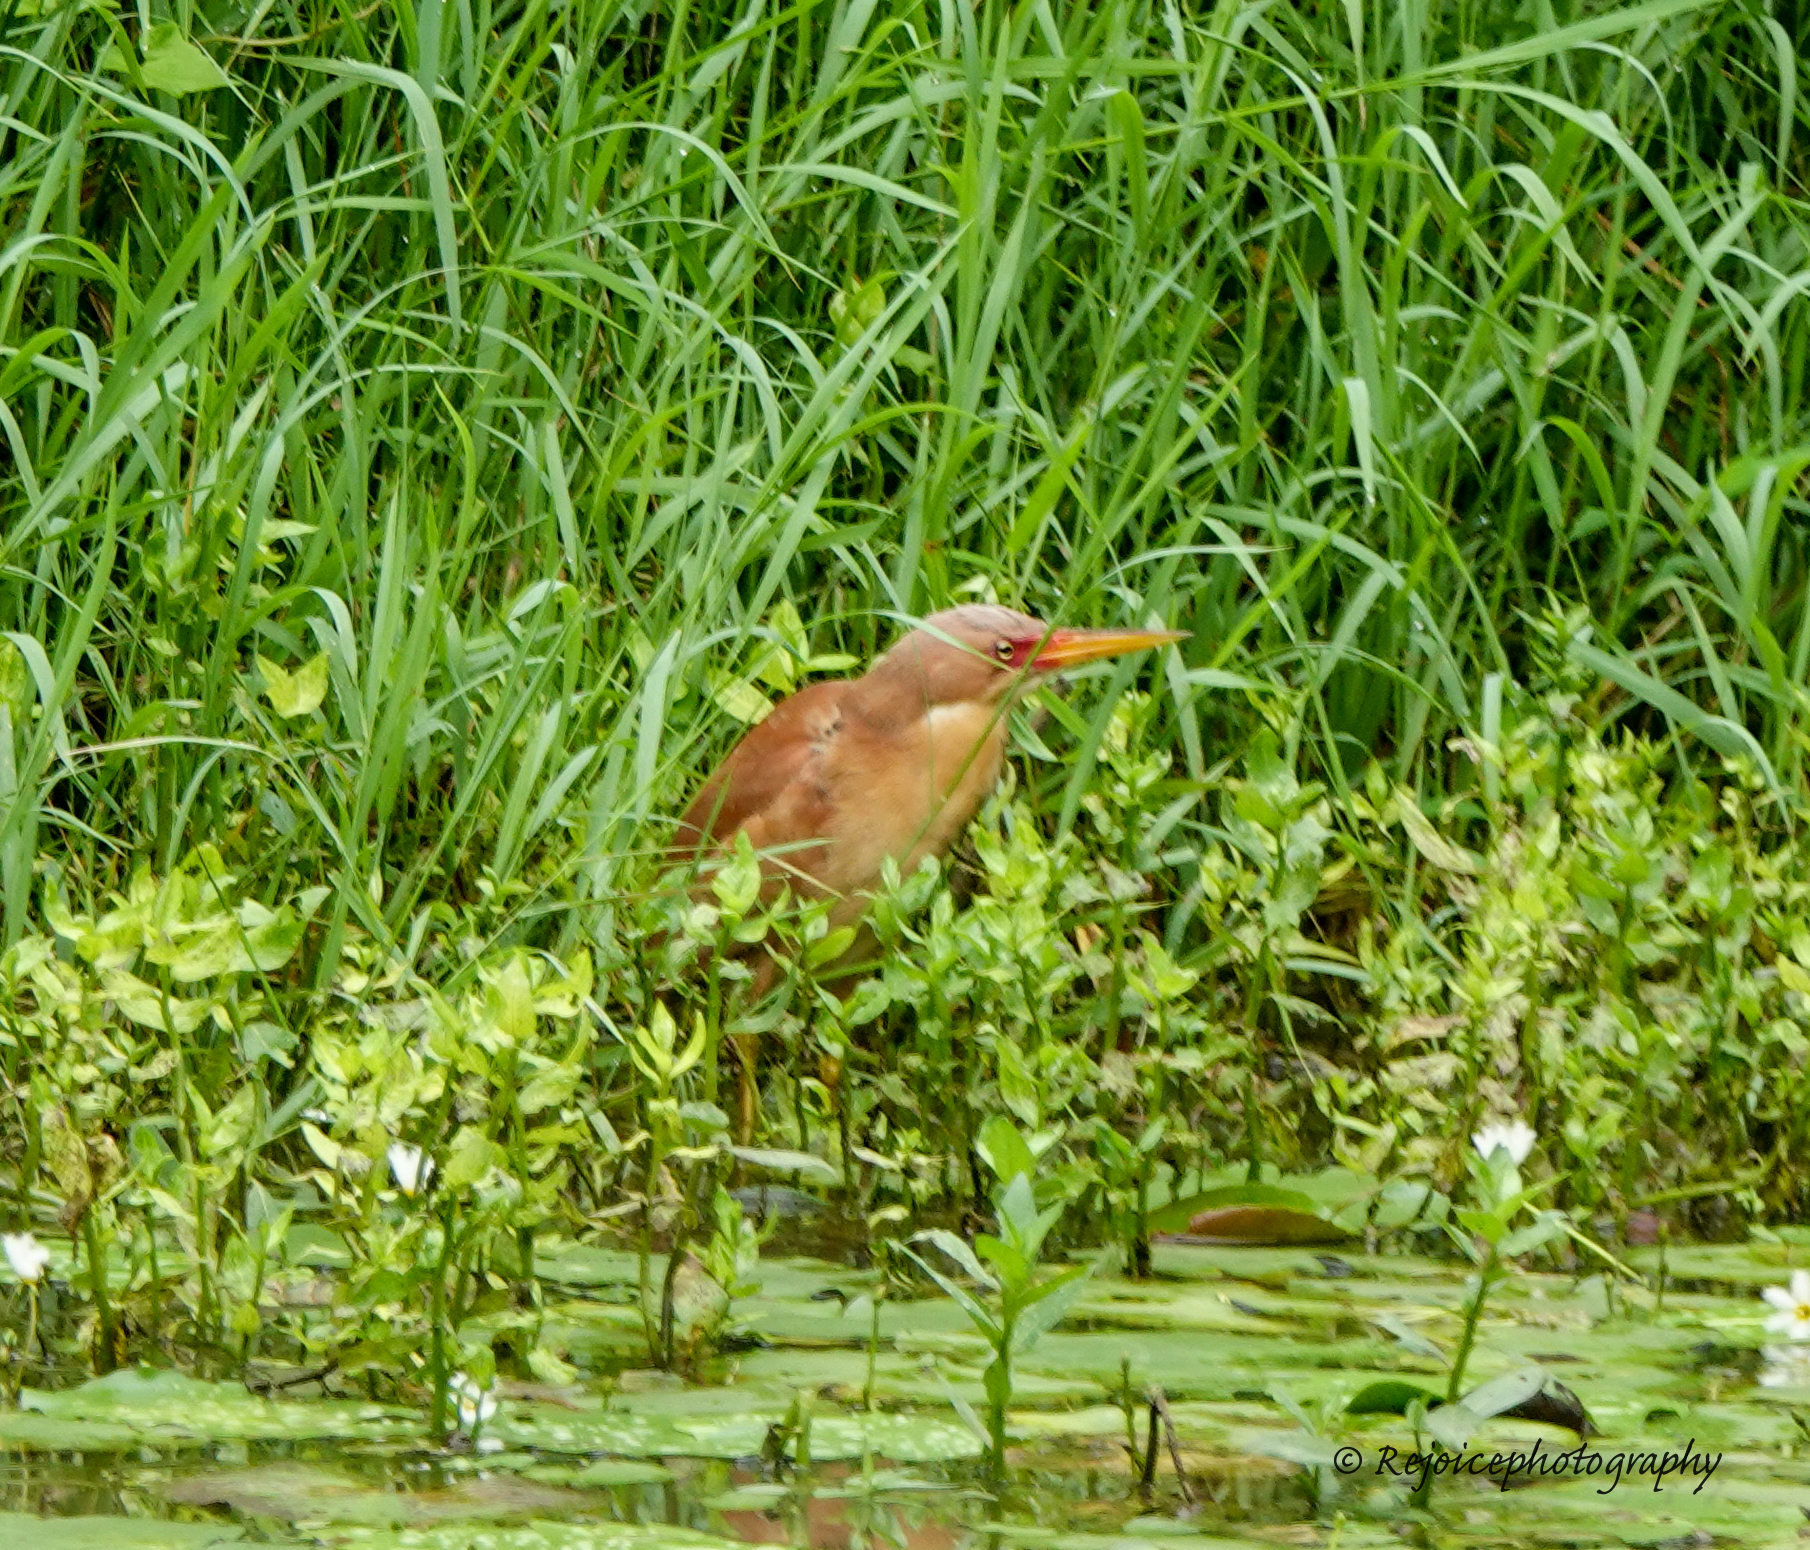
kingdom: Animalia
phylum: Chordata
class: Aves
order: Pelecaniformes
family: Ardeidae
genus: Ixobrychus
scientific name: Ixobrychus cinnamomeus
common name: Cinnamon bittern
